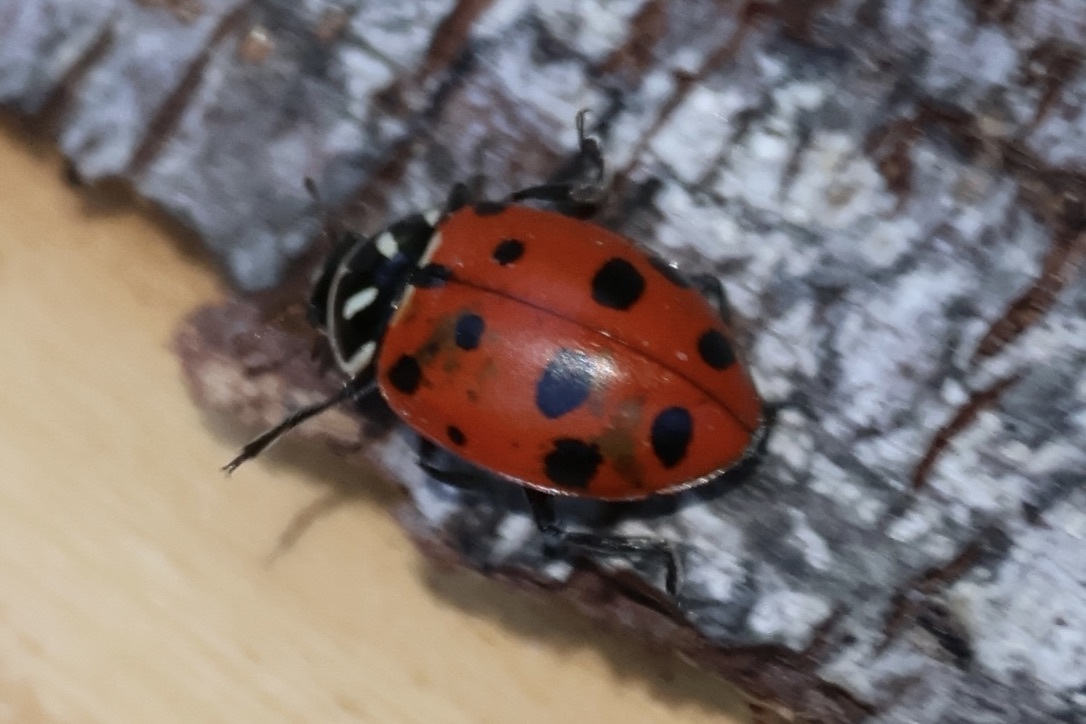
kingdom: Animalia
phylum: Arthropoda
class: Insecta
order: Coleoptera
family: Coccinellidae
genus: Hippodamia
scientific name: Hippodamia convergens
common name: Convergent lady beetle
